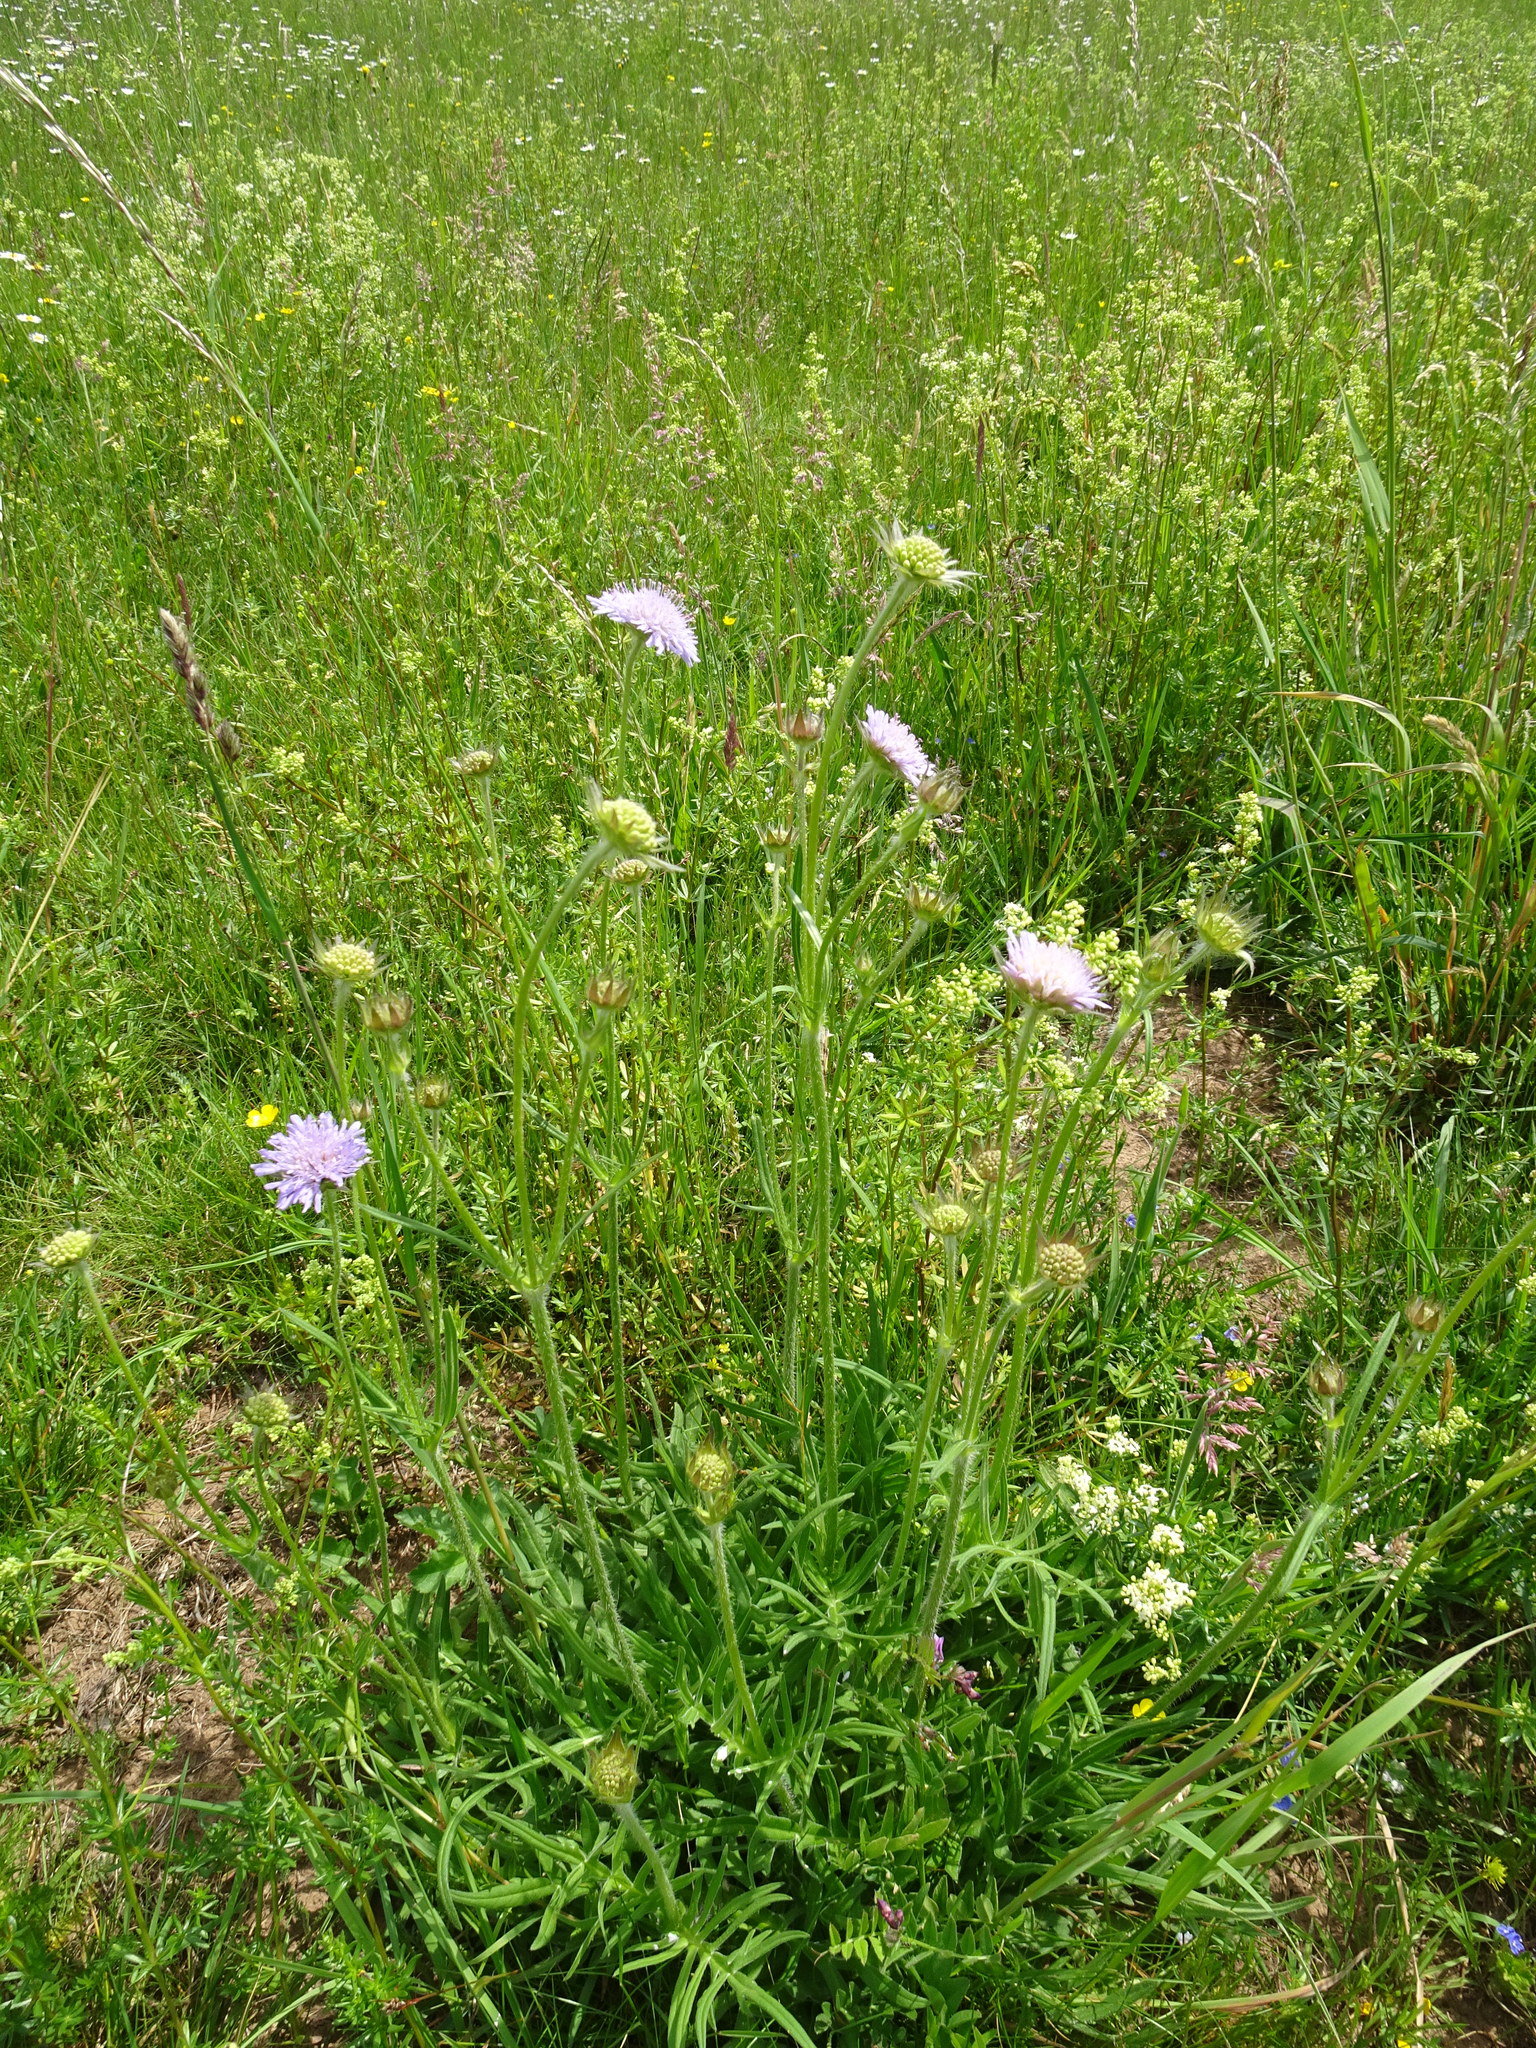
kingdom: Plantae
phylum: Tracheophyta
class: Magnoliopsida
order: Dipsacales
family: Caprifoliaceae
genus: Knautia
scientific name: Knautia arvensis
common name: Field scabiosa
